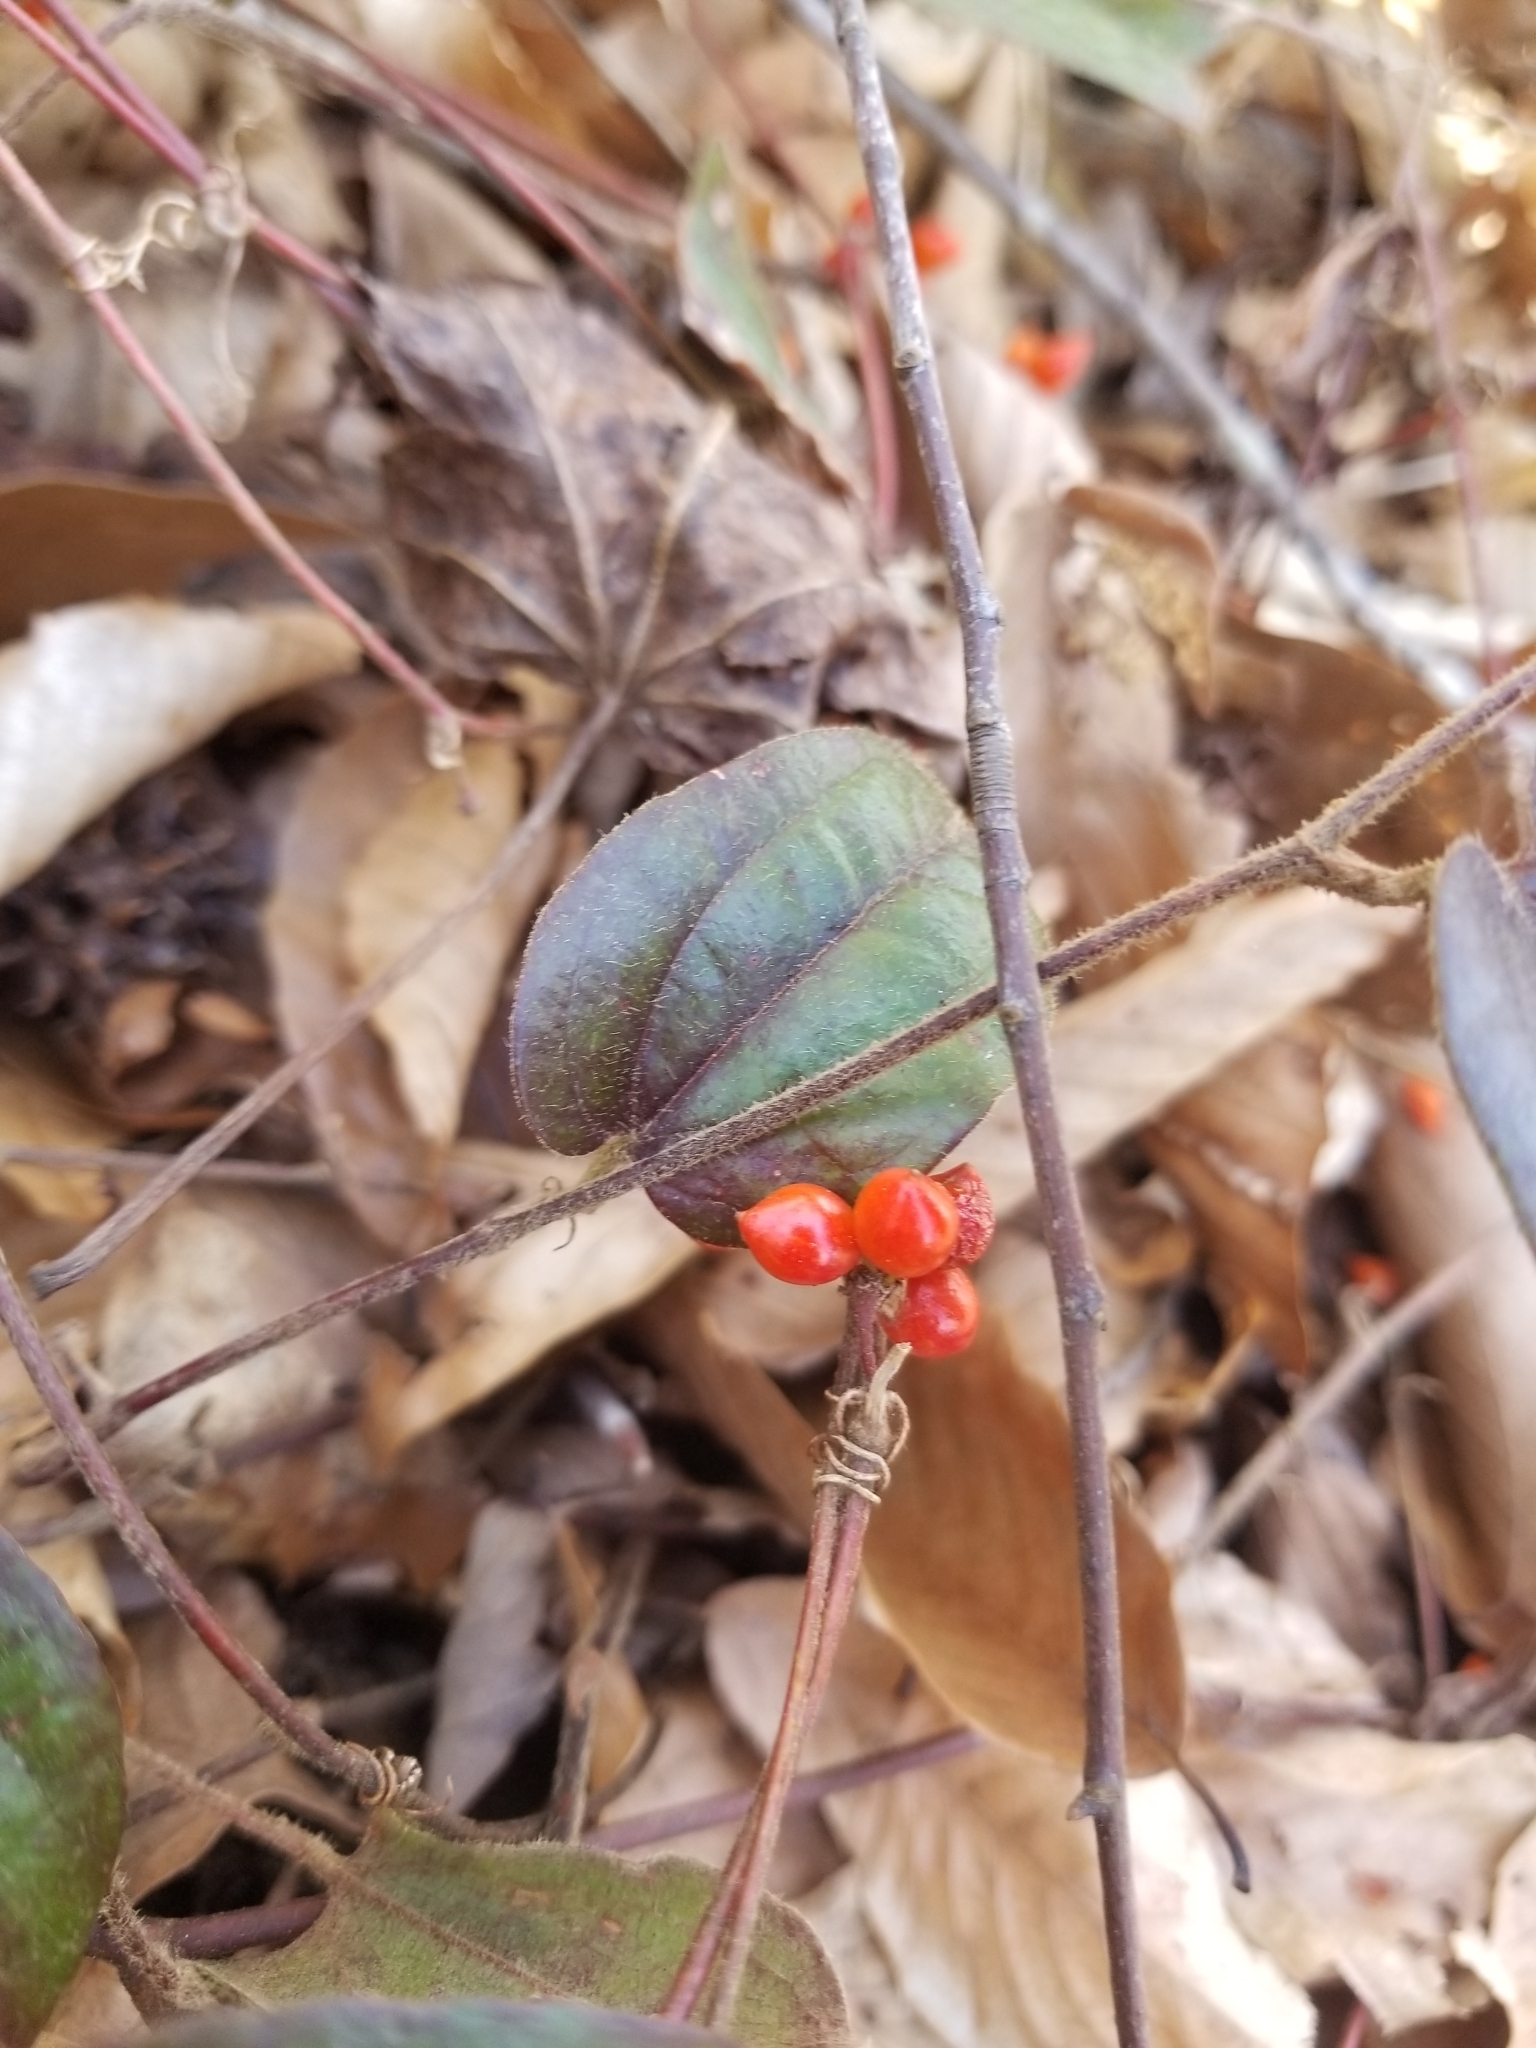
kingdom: Plantae
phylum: Tracheophyta
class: Liliopsida
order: Liliales
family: Smilacaceae
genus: Smilax
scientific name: Smilax pumila
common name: Sarsaparilla-vine
